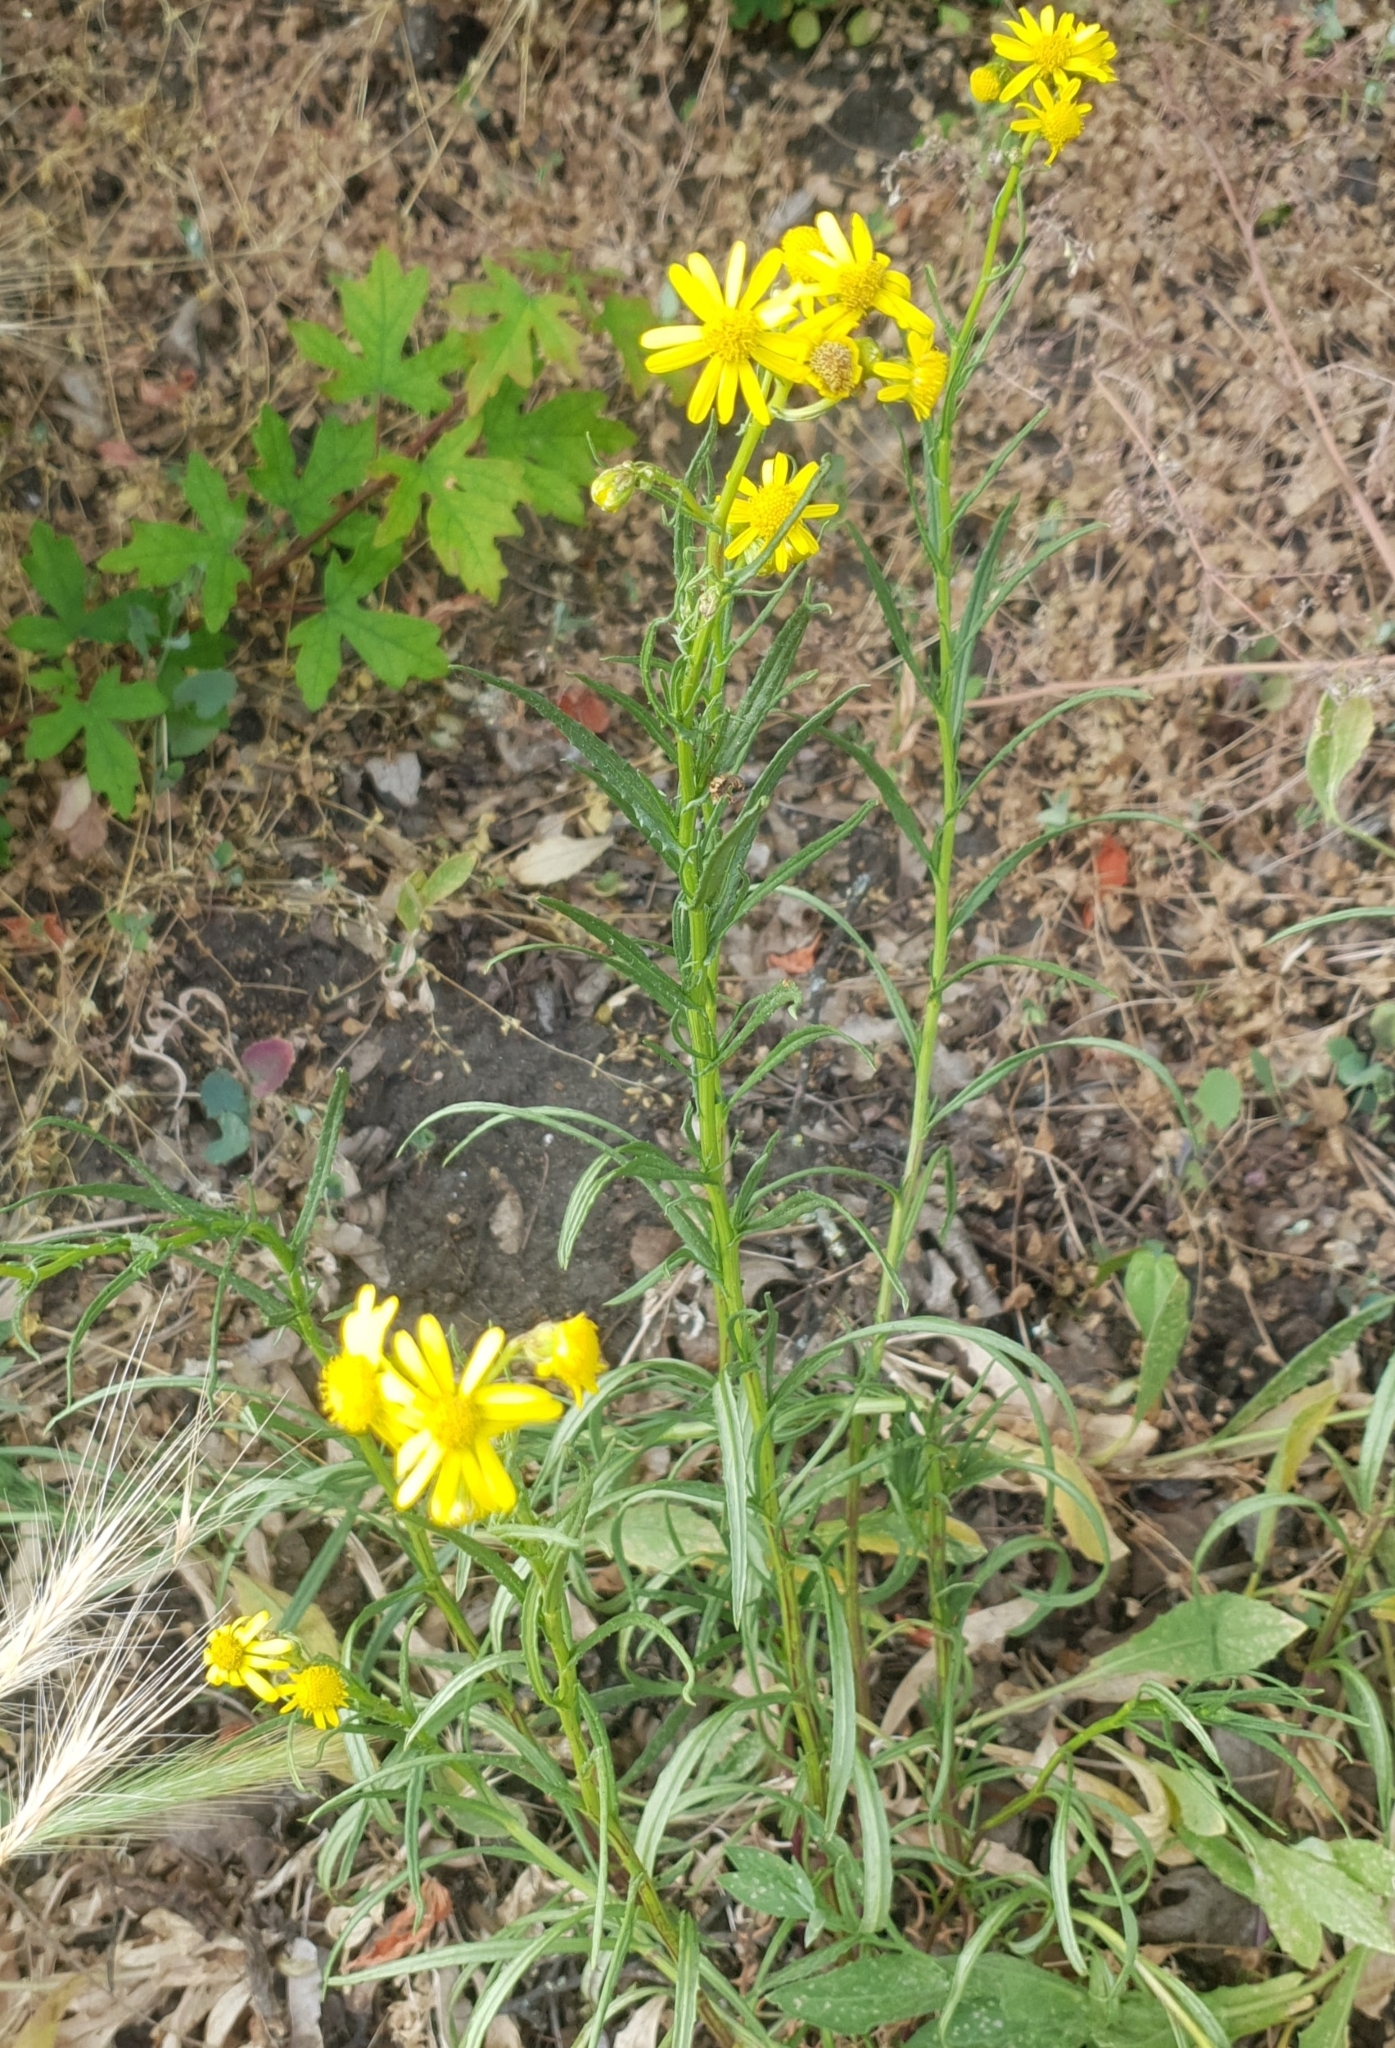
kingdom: Plantae
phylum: Tracheophyta
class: Magnoliopsida
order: Asterales
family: Asteraceae
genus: Senecio
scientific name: Senecio inaequidens
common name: Narrow-leaved ragwort
